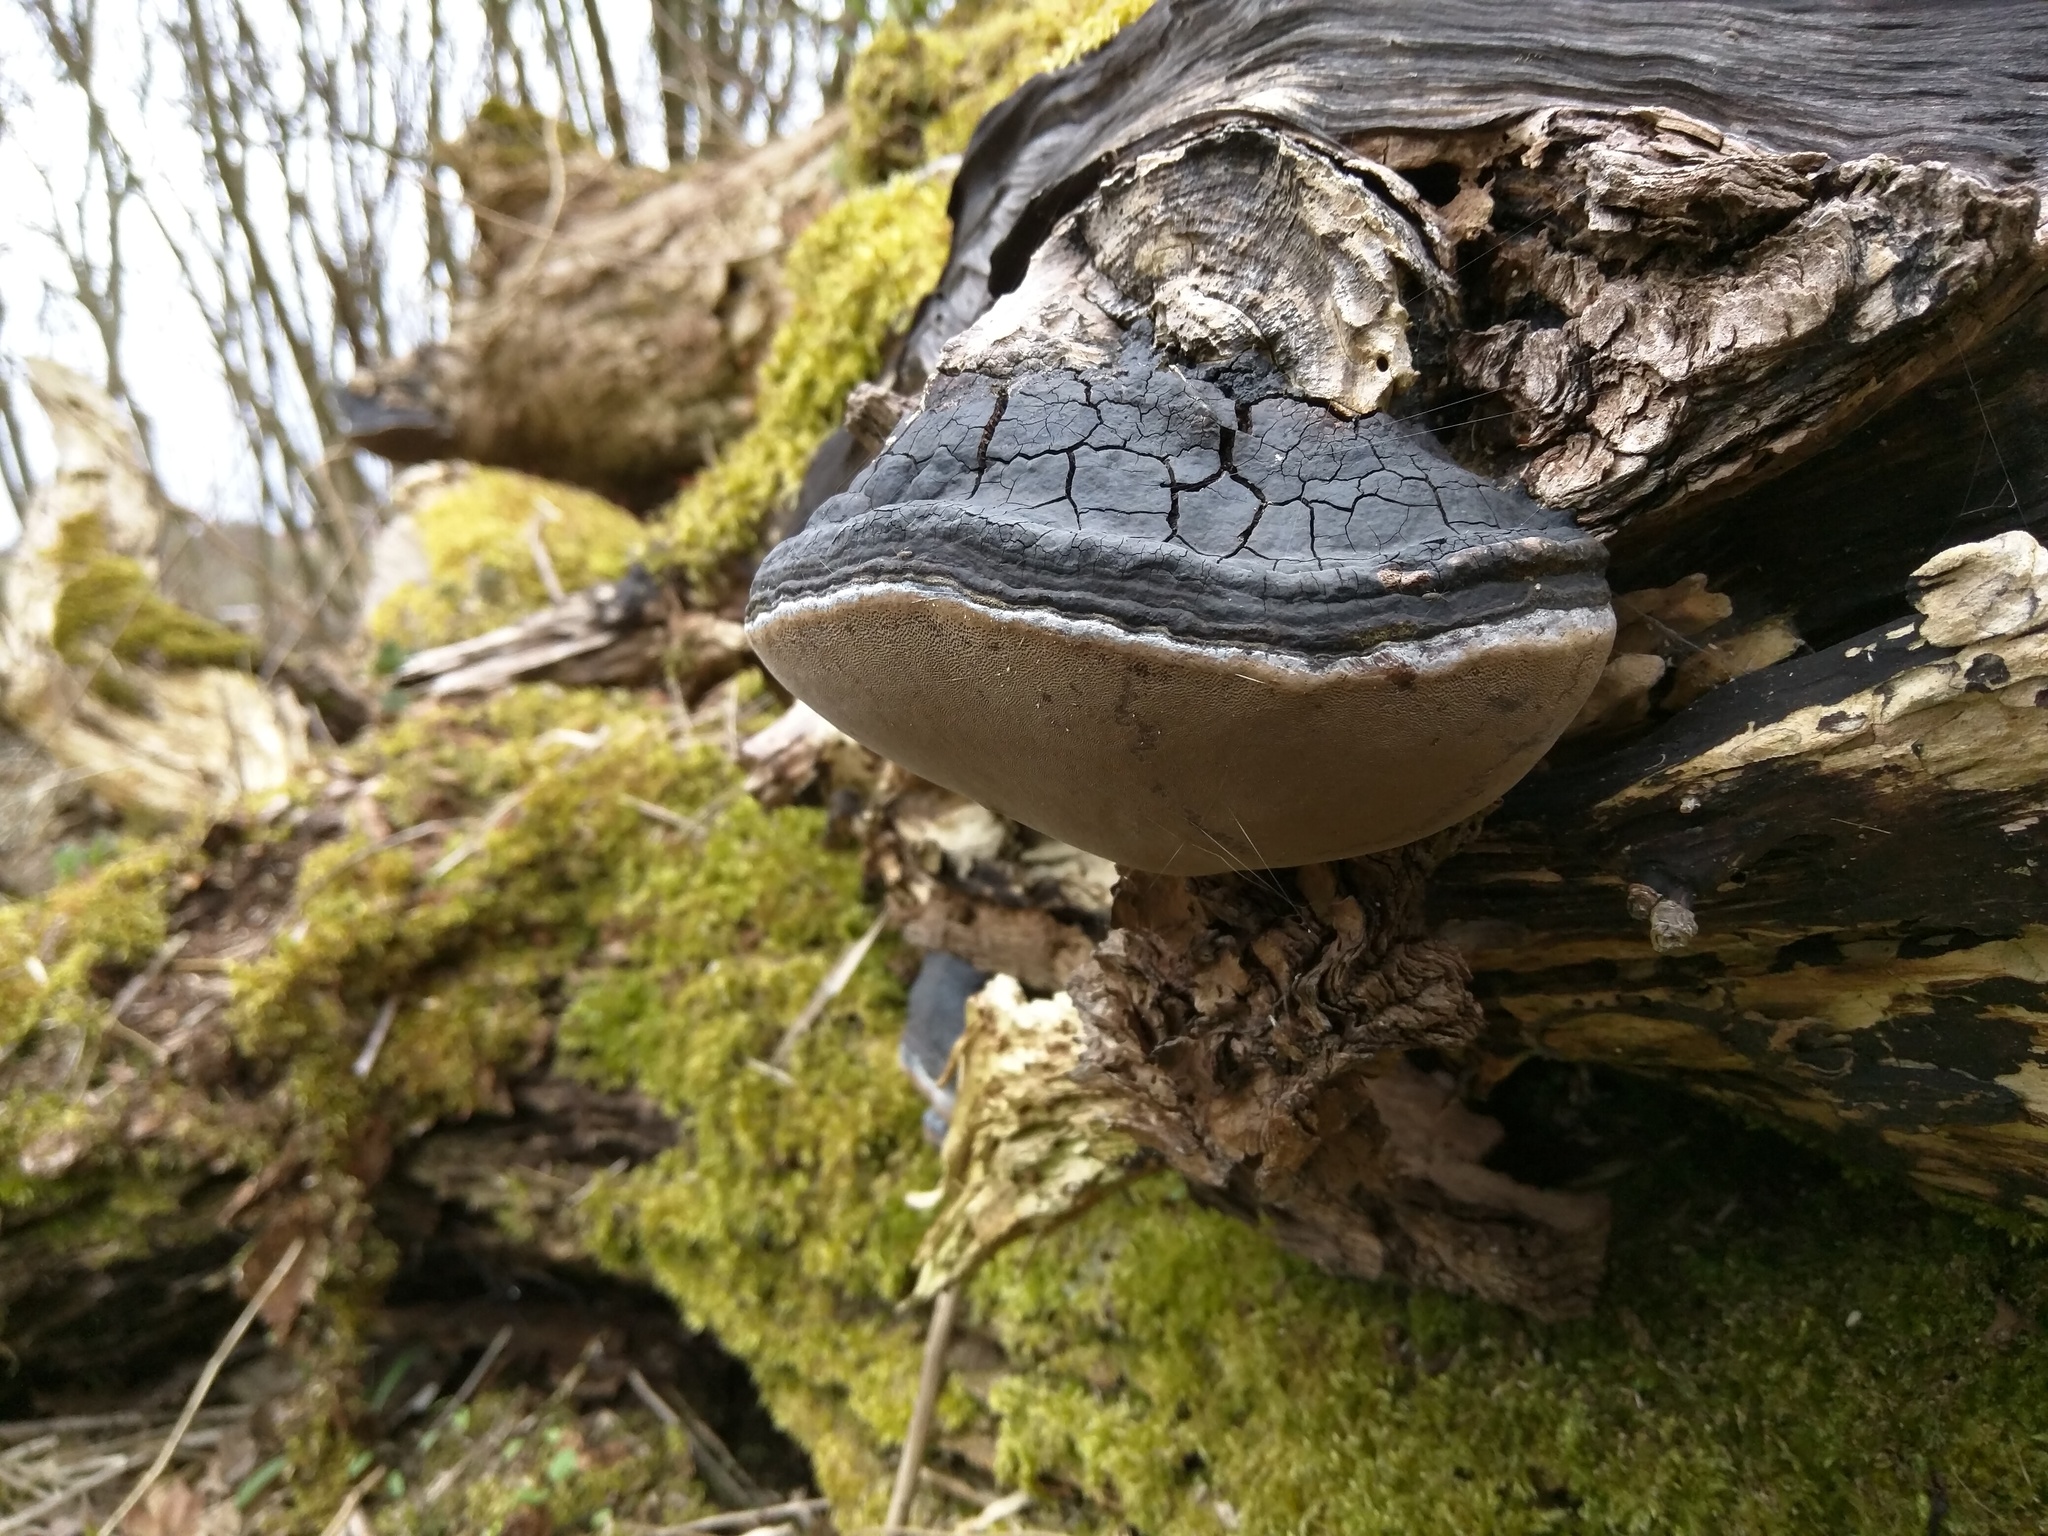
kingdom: Fungi
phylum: Basidiomycota
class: Agaricomycetes
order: Hymenochaetales
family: Hymenochaetaceae
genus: Phellinus
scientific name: Phellinus igniarius
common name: Willow bracket
